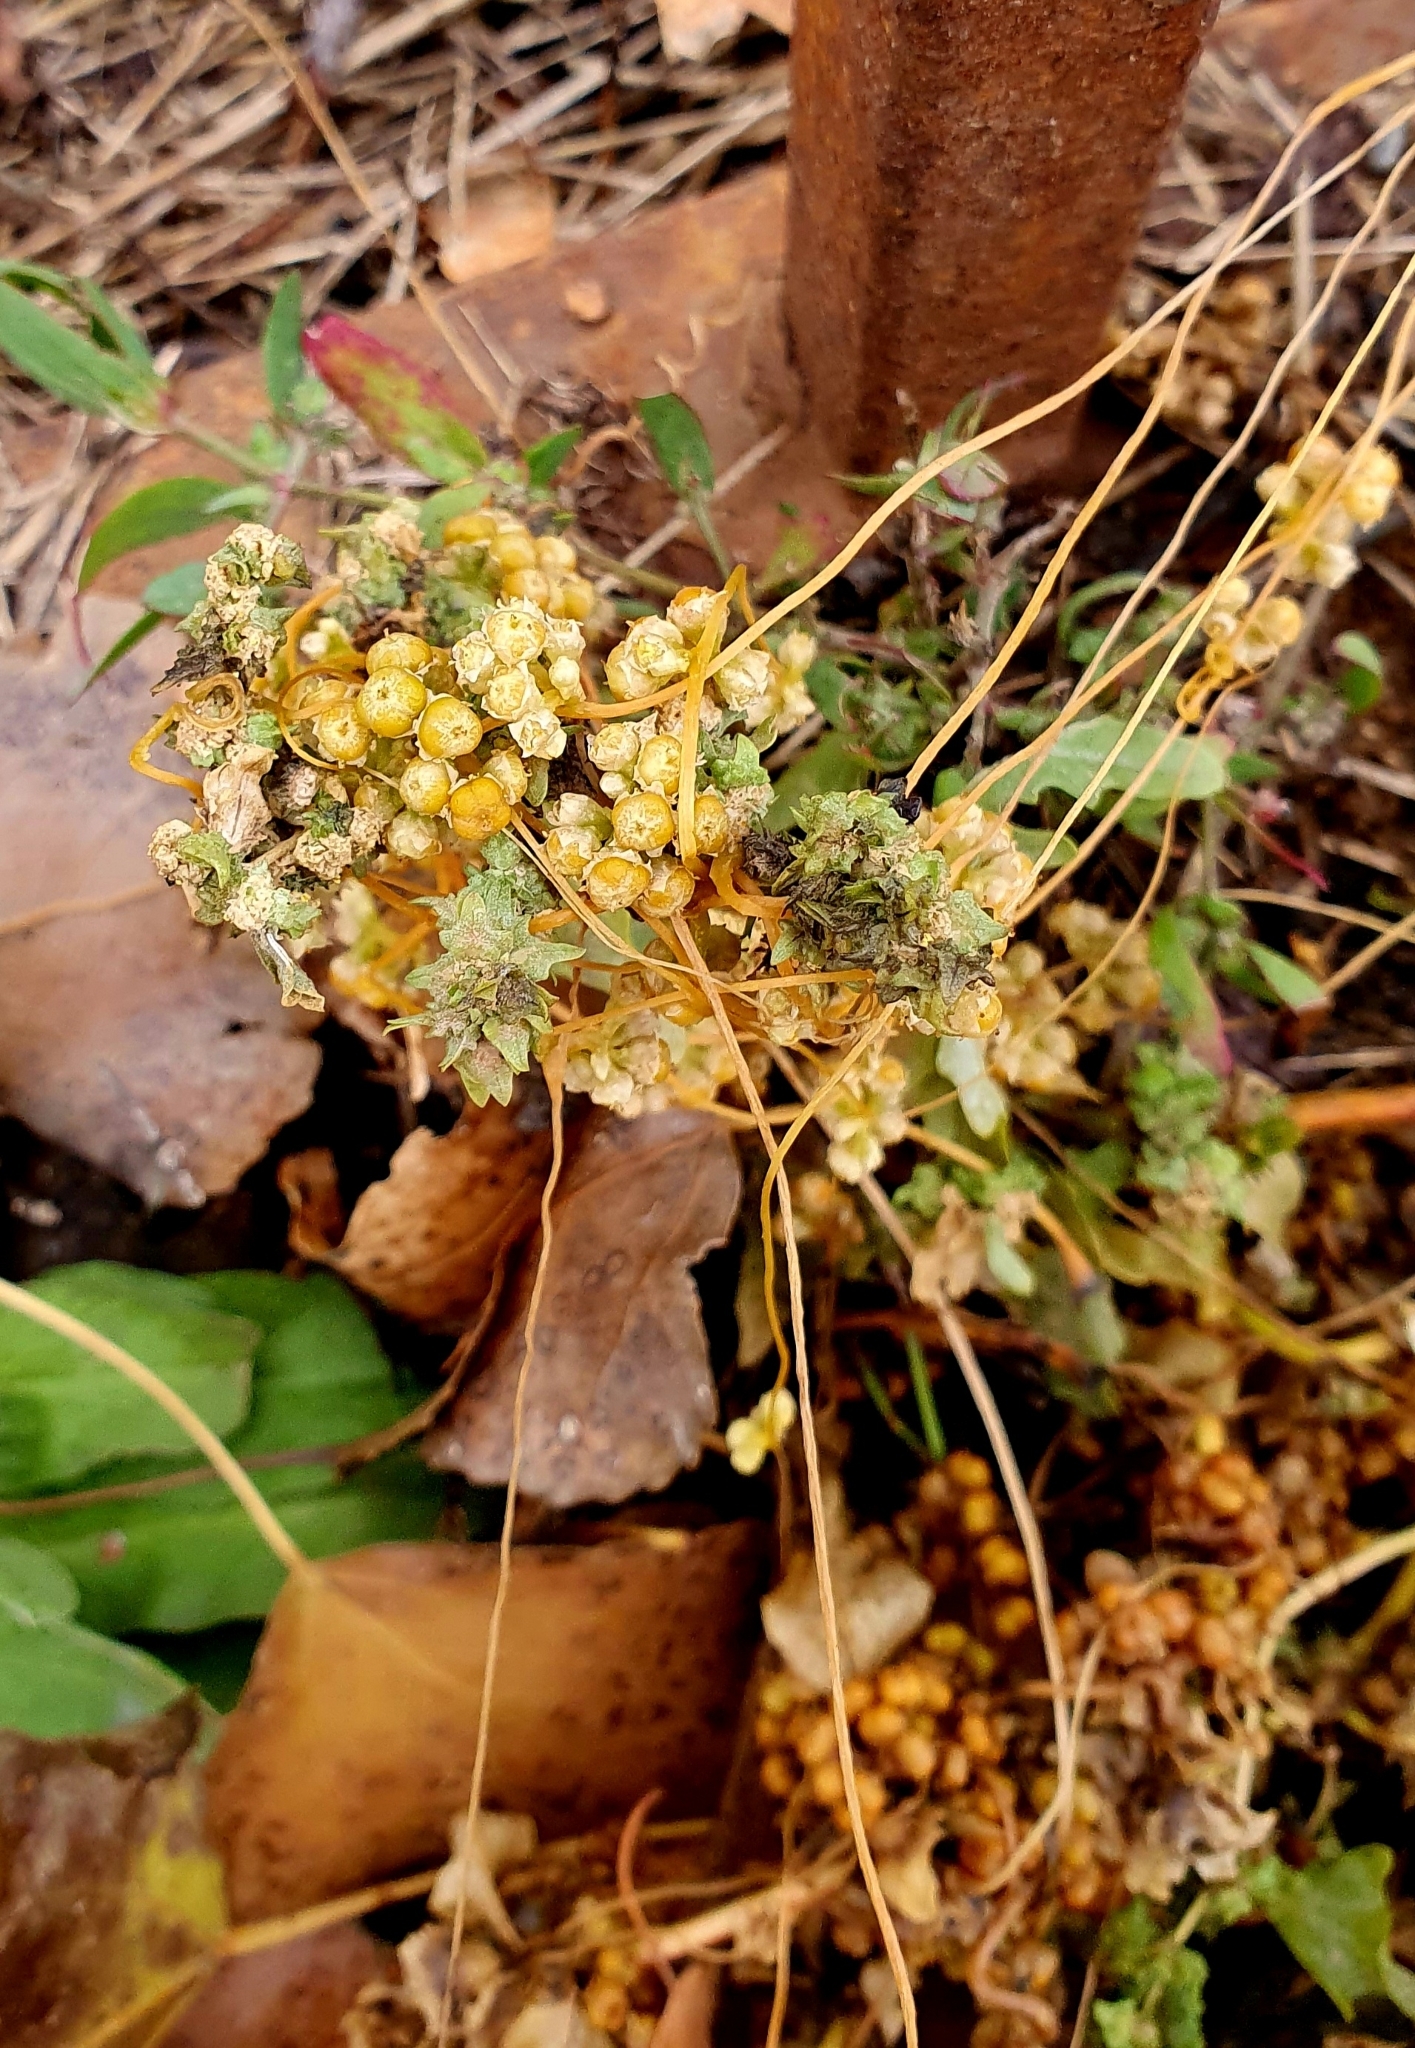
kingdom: Plantae
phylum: Tracheophyta
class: Magnoliopsida
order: Solanales
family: Convolvulaceae
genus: Cuscuta
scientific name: Cuscuta campestris
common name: Yellow dodder
